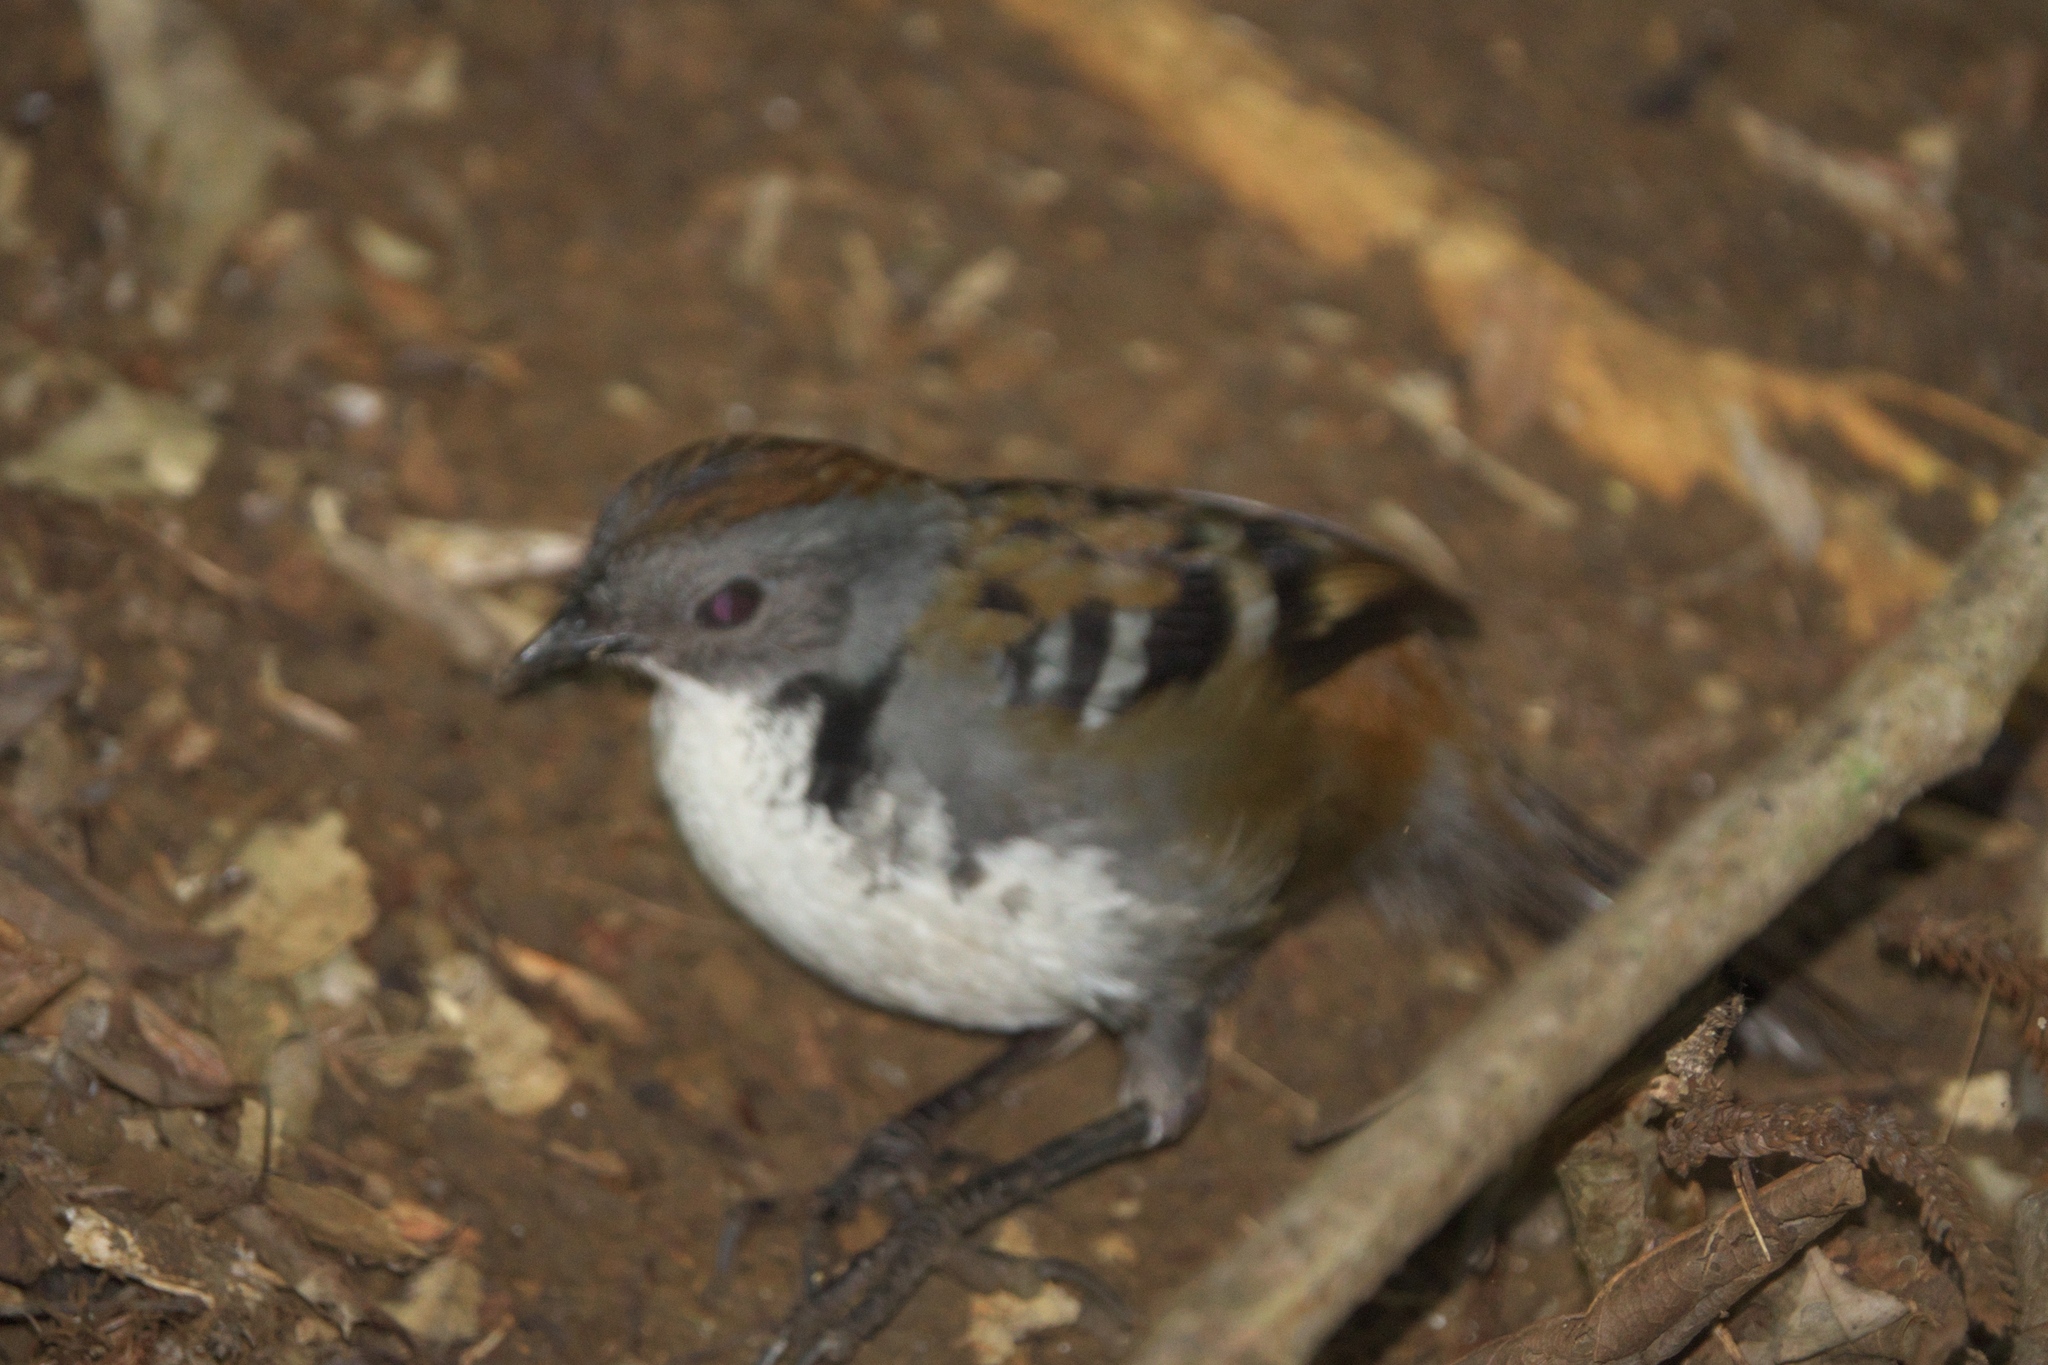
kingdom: Animalia
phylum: Chordata
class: Aves
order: Passeriformes
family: Orthonychidae
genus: Orthonyx
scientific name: Orthonyx temminckii
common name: Australian logrunner
